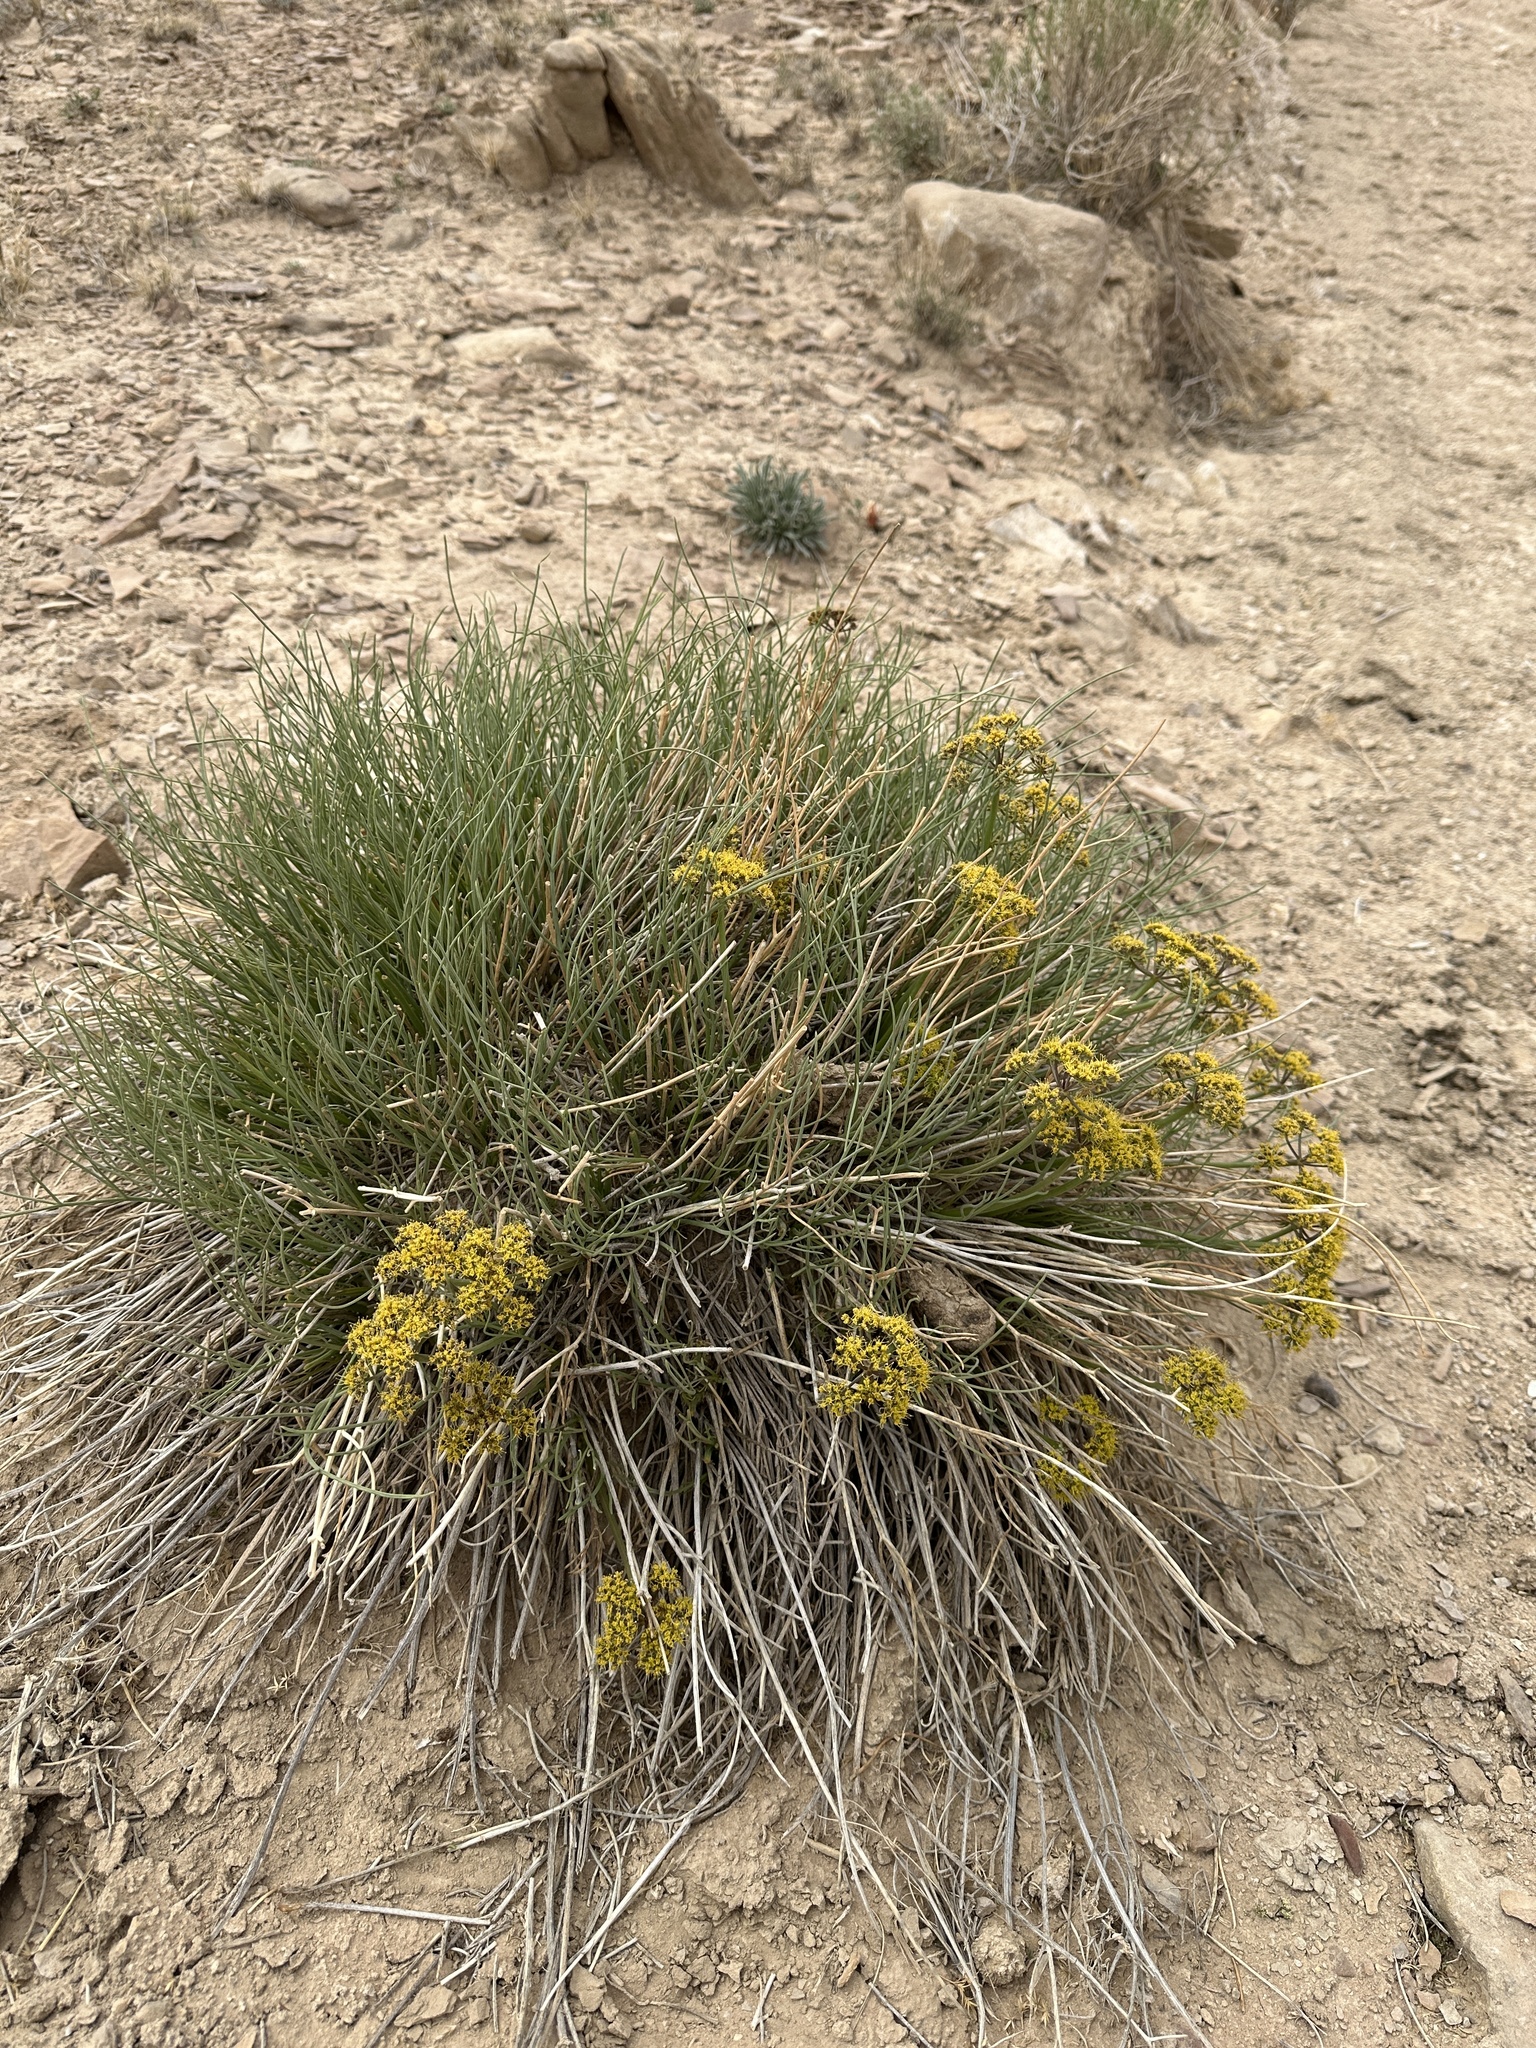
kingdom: Plantae
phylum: Tracheophyta
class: Magnoliopsida
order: Apiales
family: Apiaceae
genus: Lomatium
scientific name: Lomatium junceum
